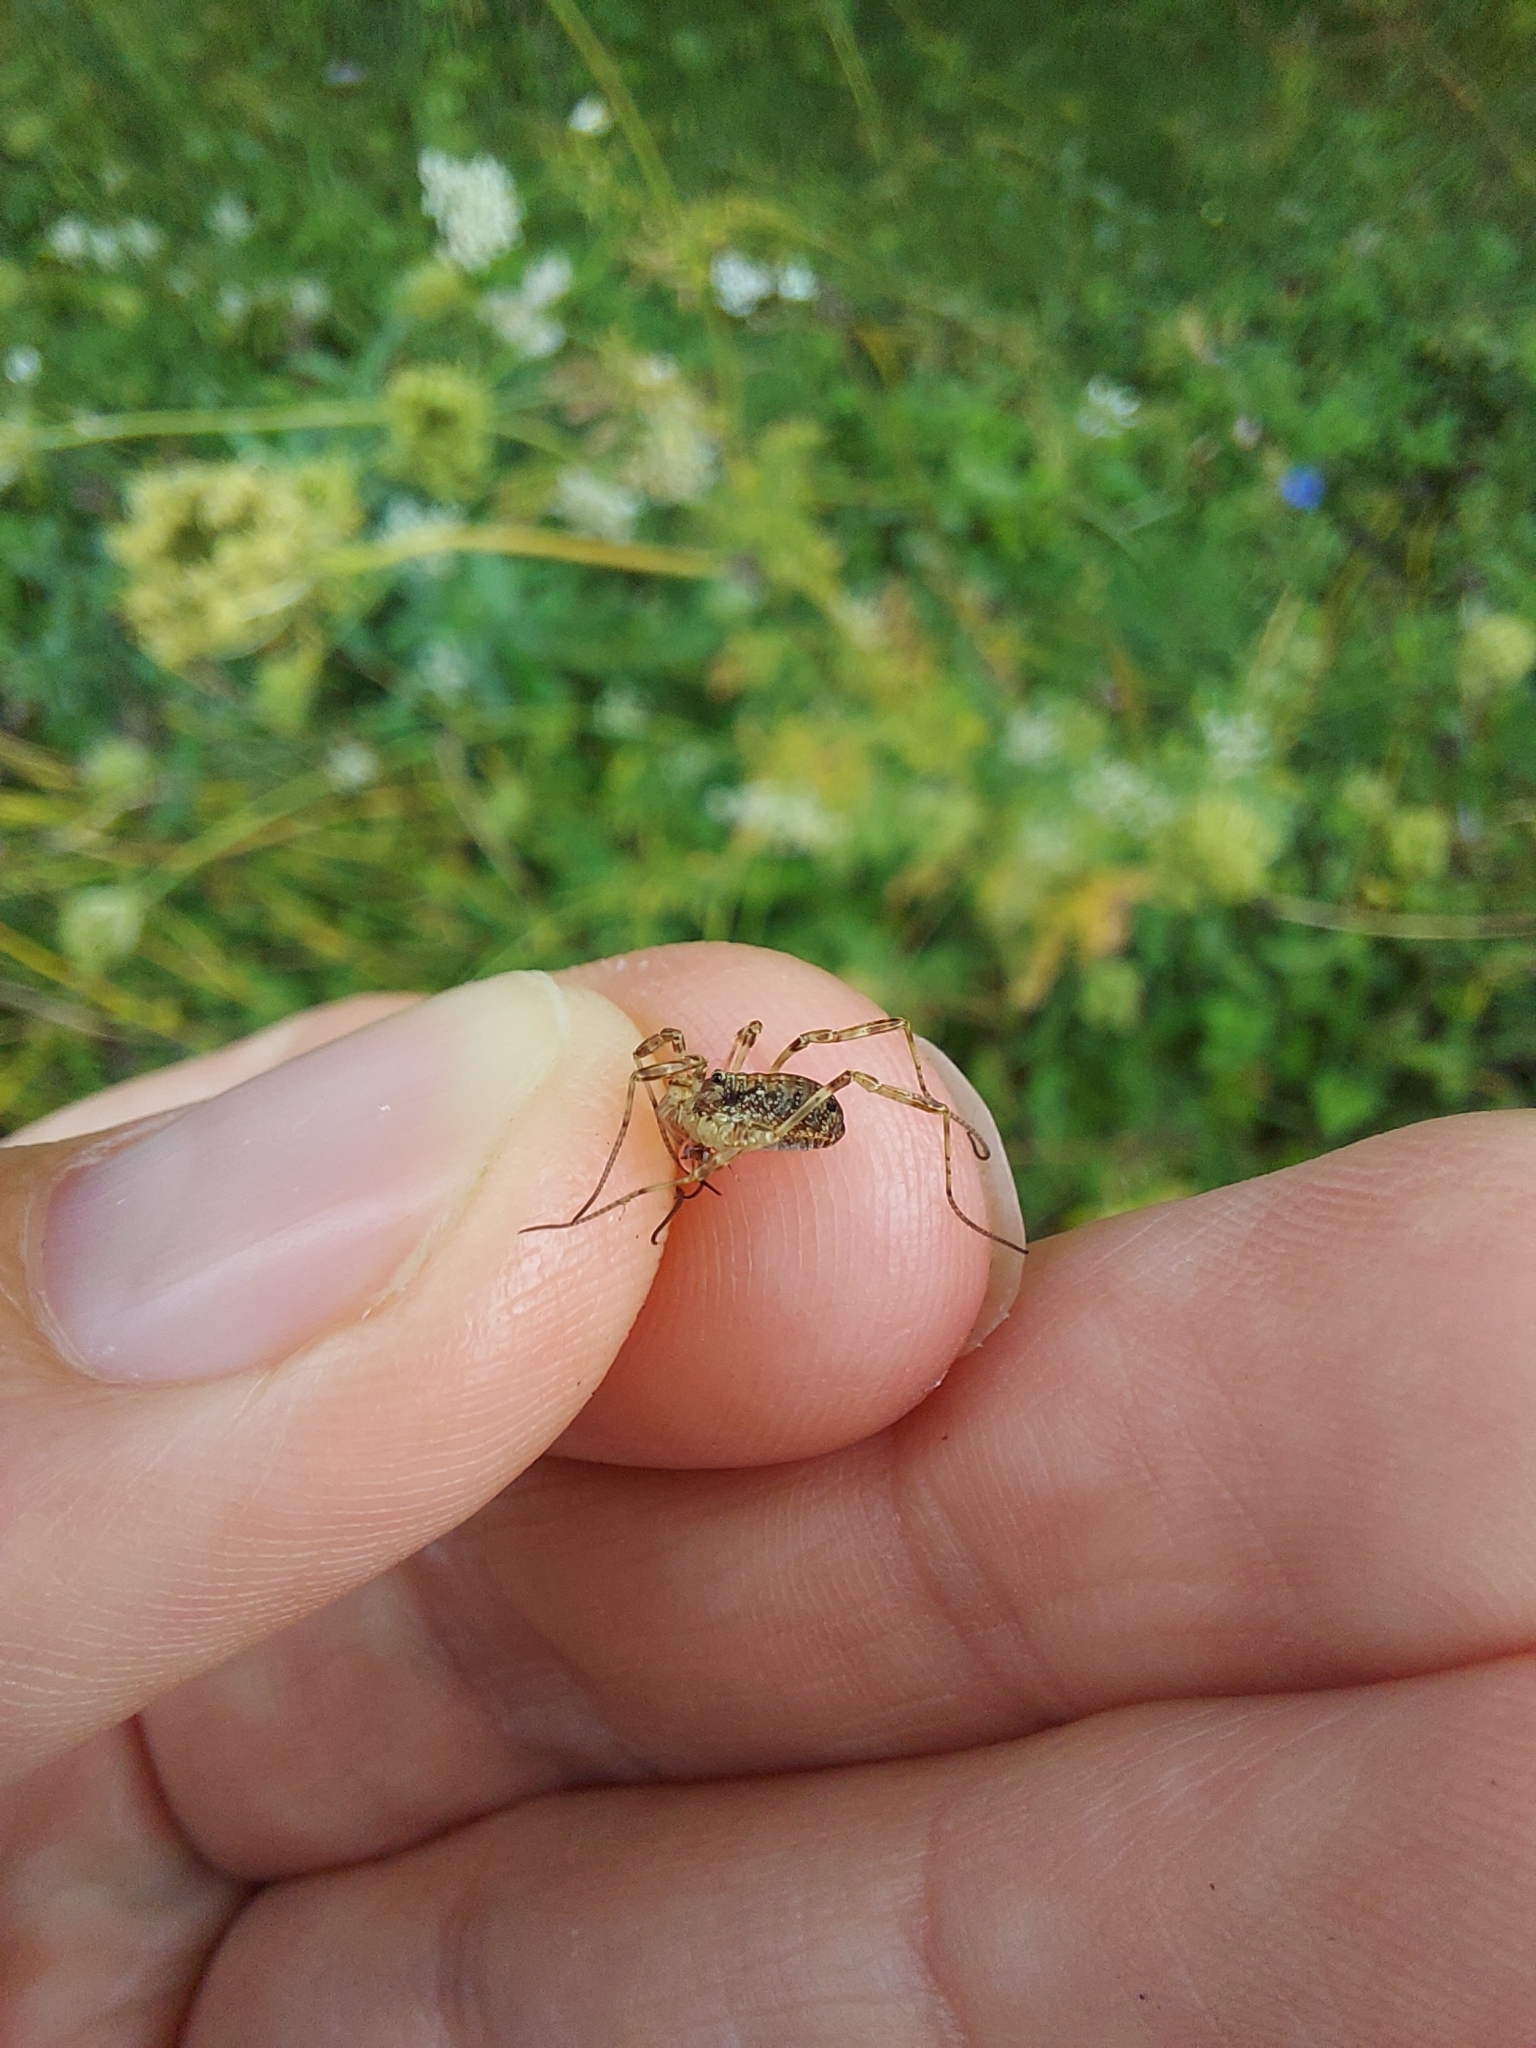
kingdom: Animalia
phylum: Arthropoda
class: Arachnida
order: Opiliones
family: Phalangiidae
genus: Paroligolophus
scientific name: Paroligolophus agrestis
